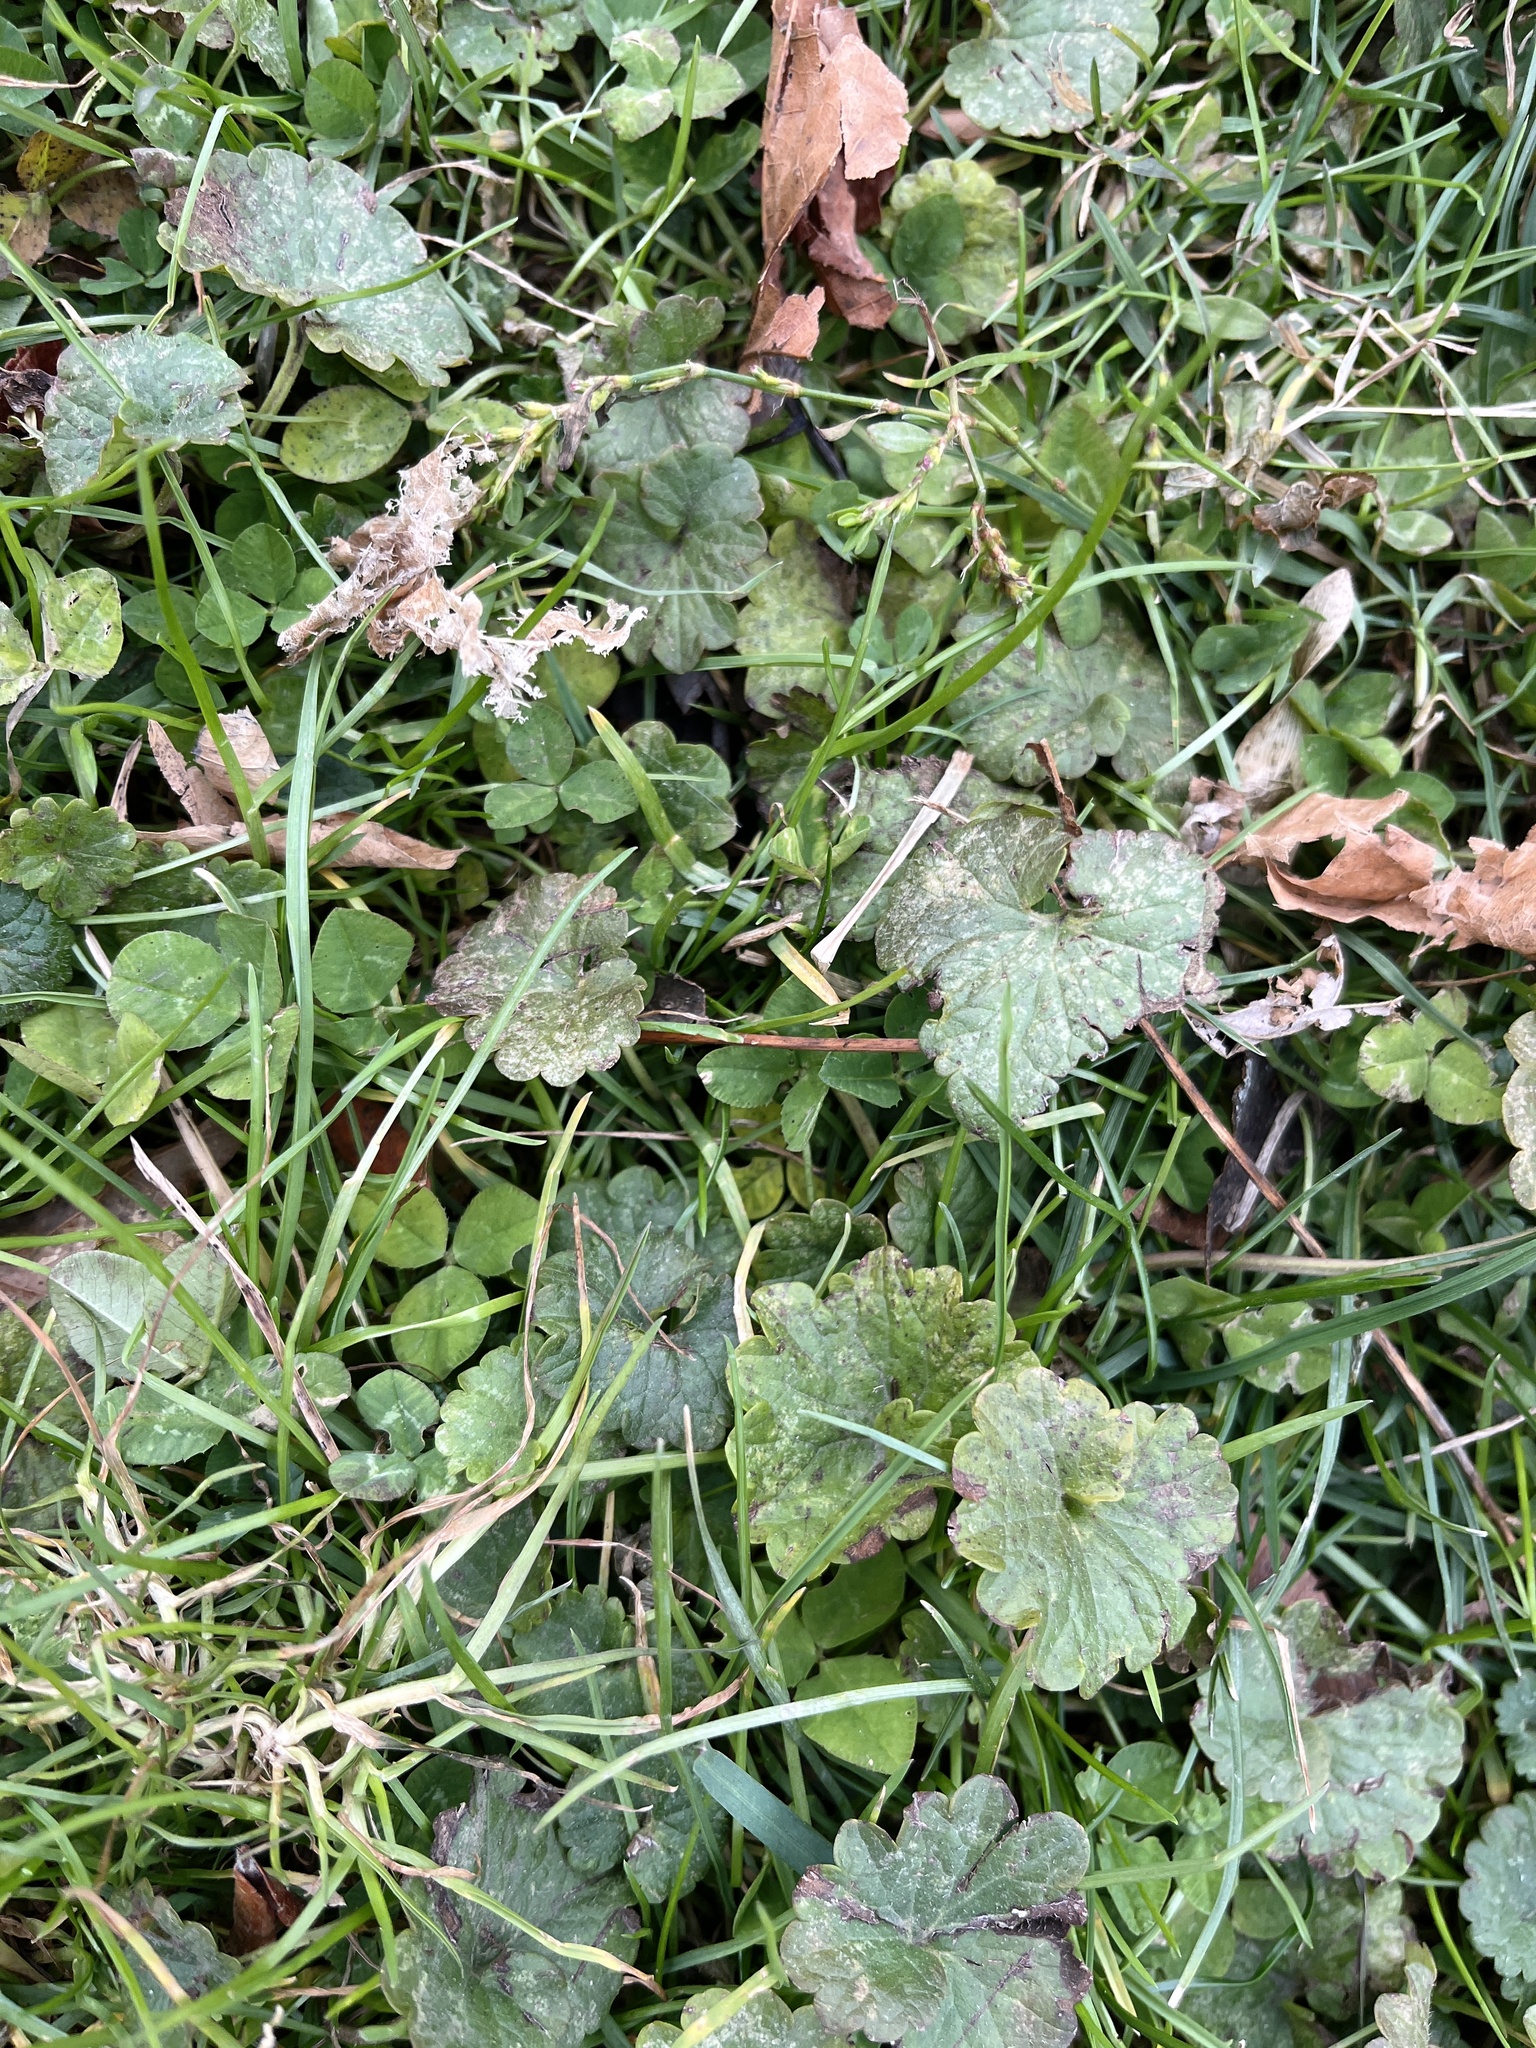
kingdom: Plantae
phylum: Tracheophyta
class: Magnoliopsida
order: Lamiales
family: Lamiaceae
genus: Glechoma
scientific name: Glechoma hederacea
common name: Ground ivy
